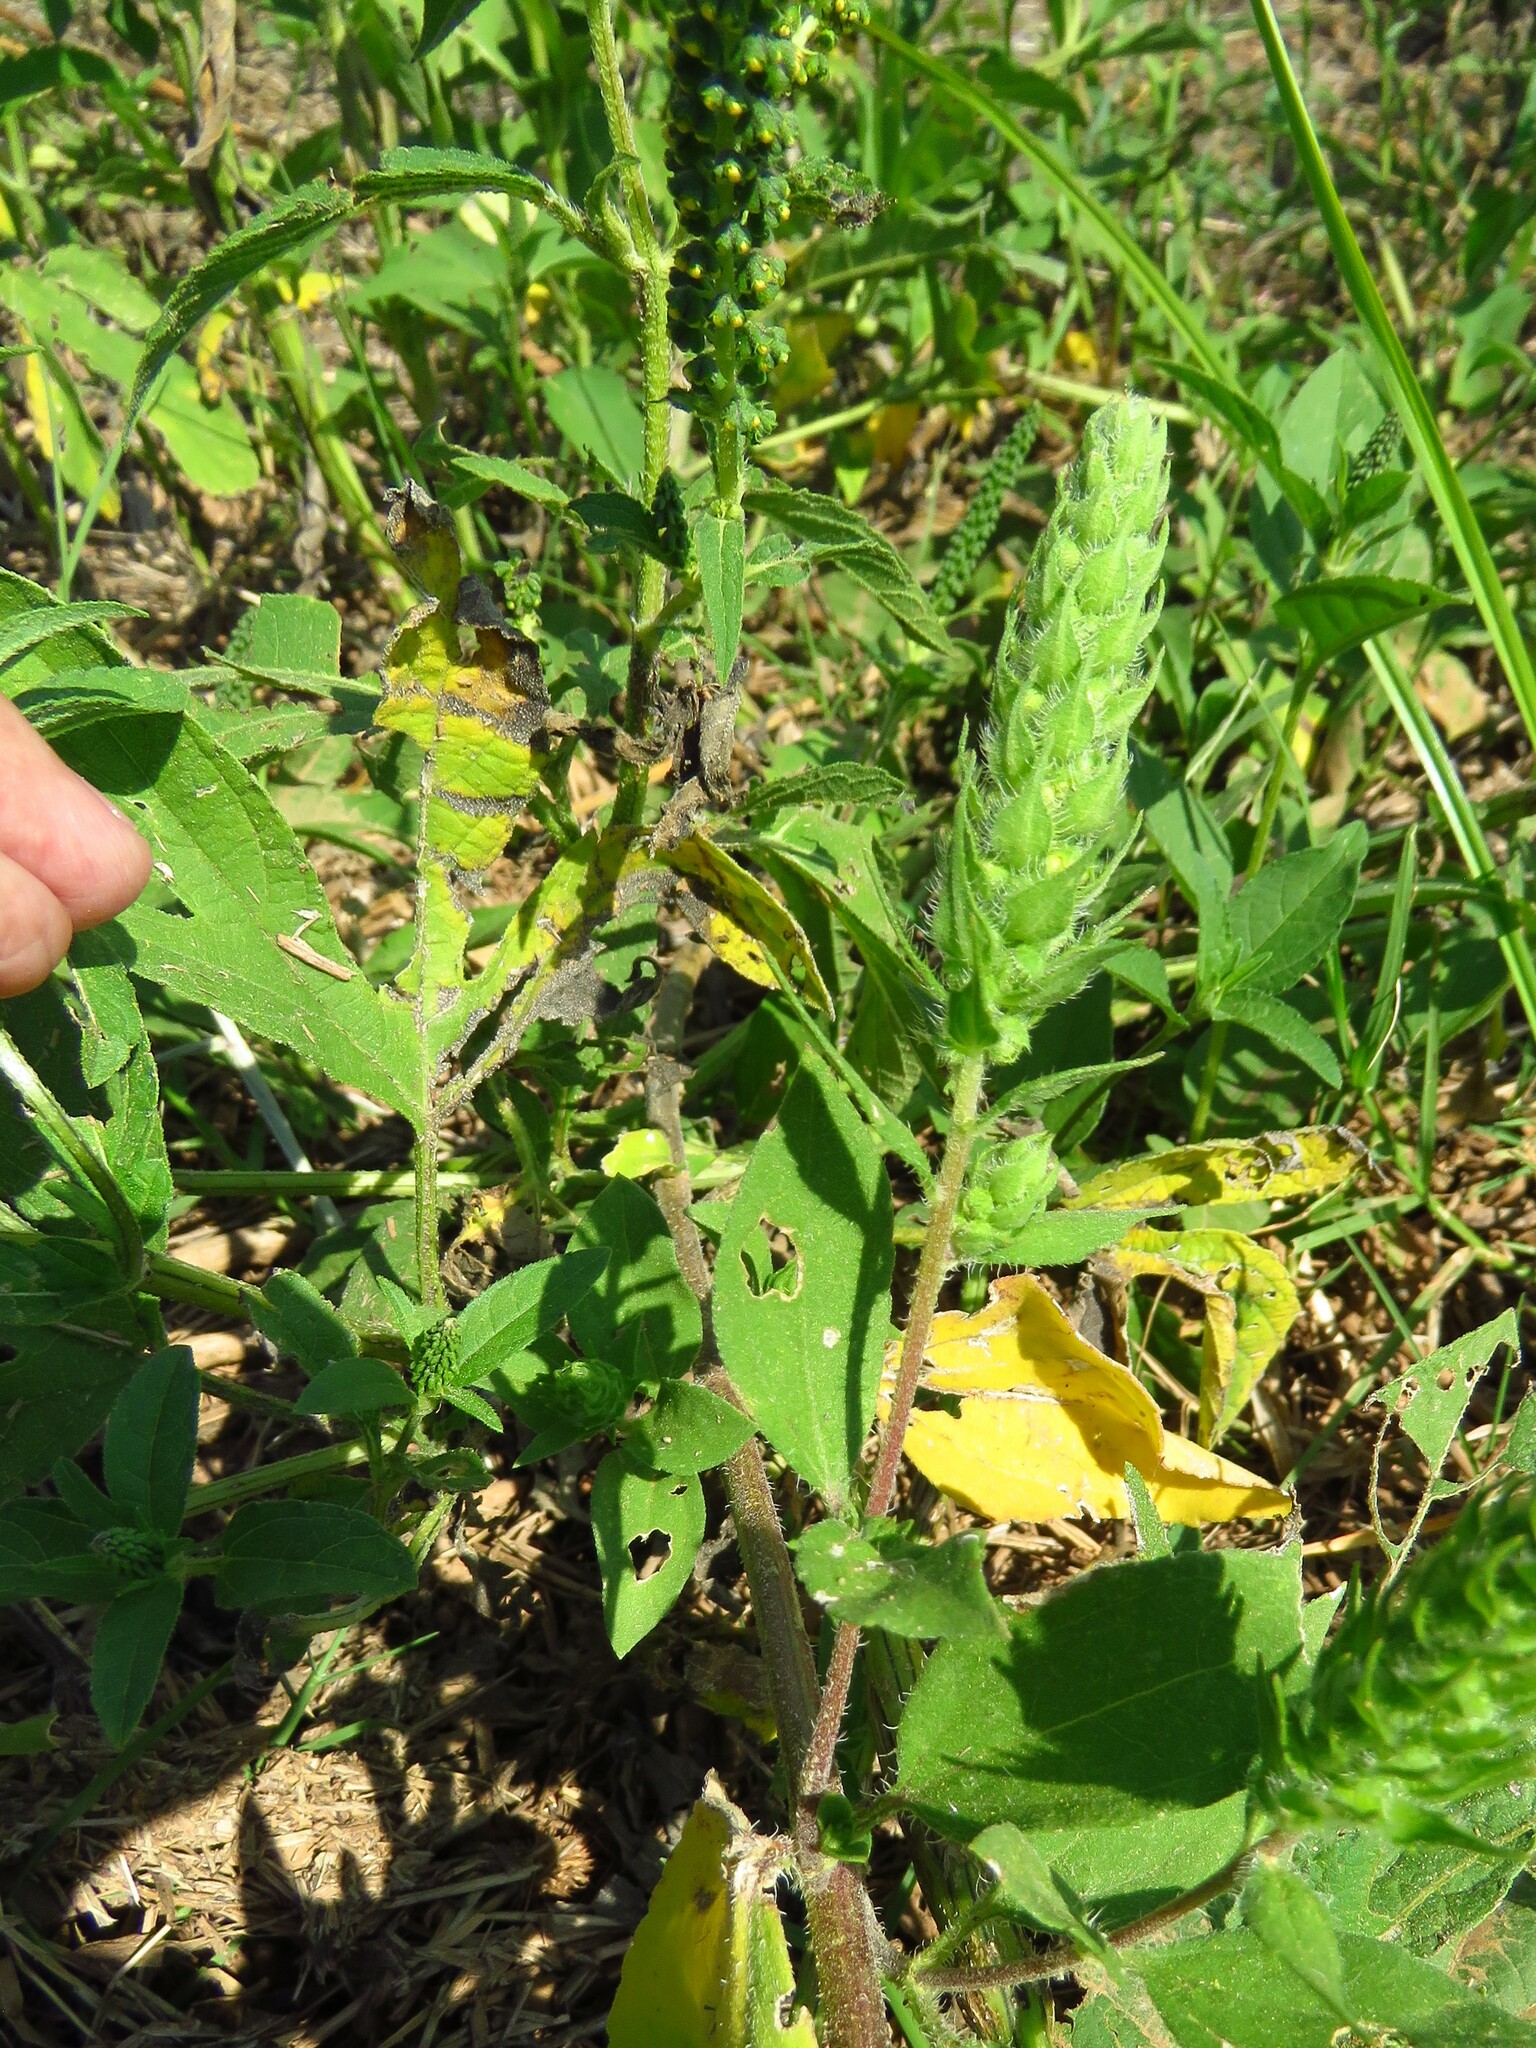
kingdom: Plantae
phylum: Tracheophyta
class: Magnoliopsida
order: Asterales
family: Asteraceae
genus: Iva
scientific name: Iva annua
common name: Marsh-elder
